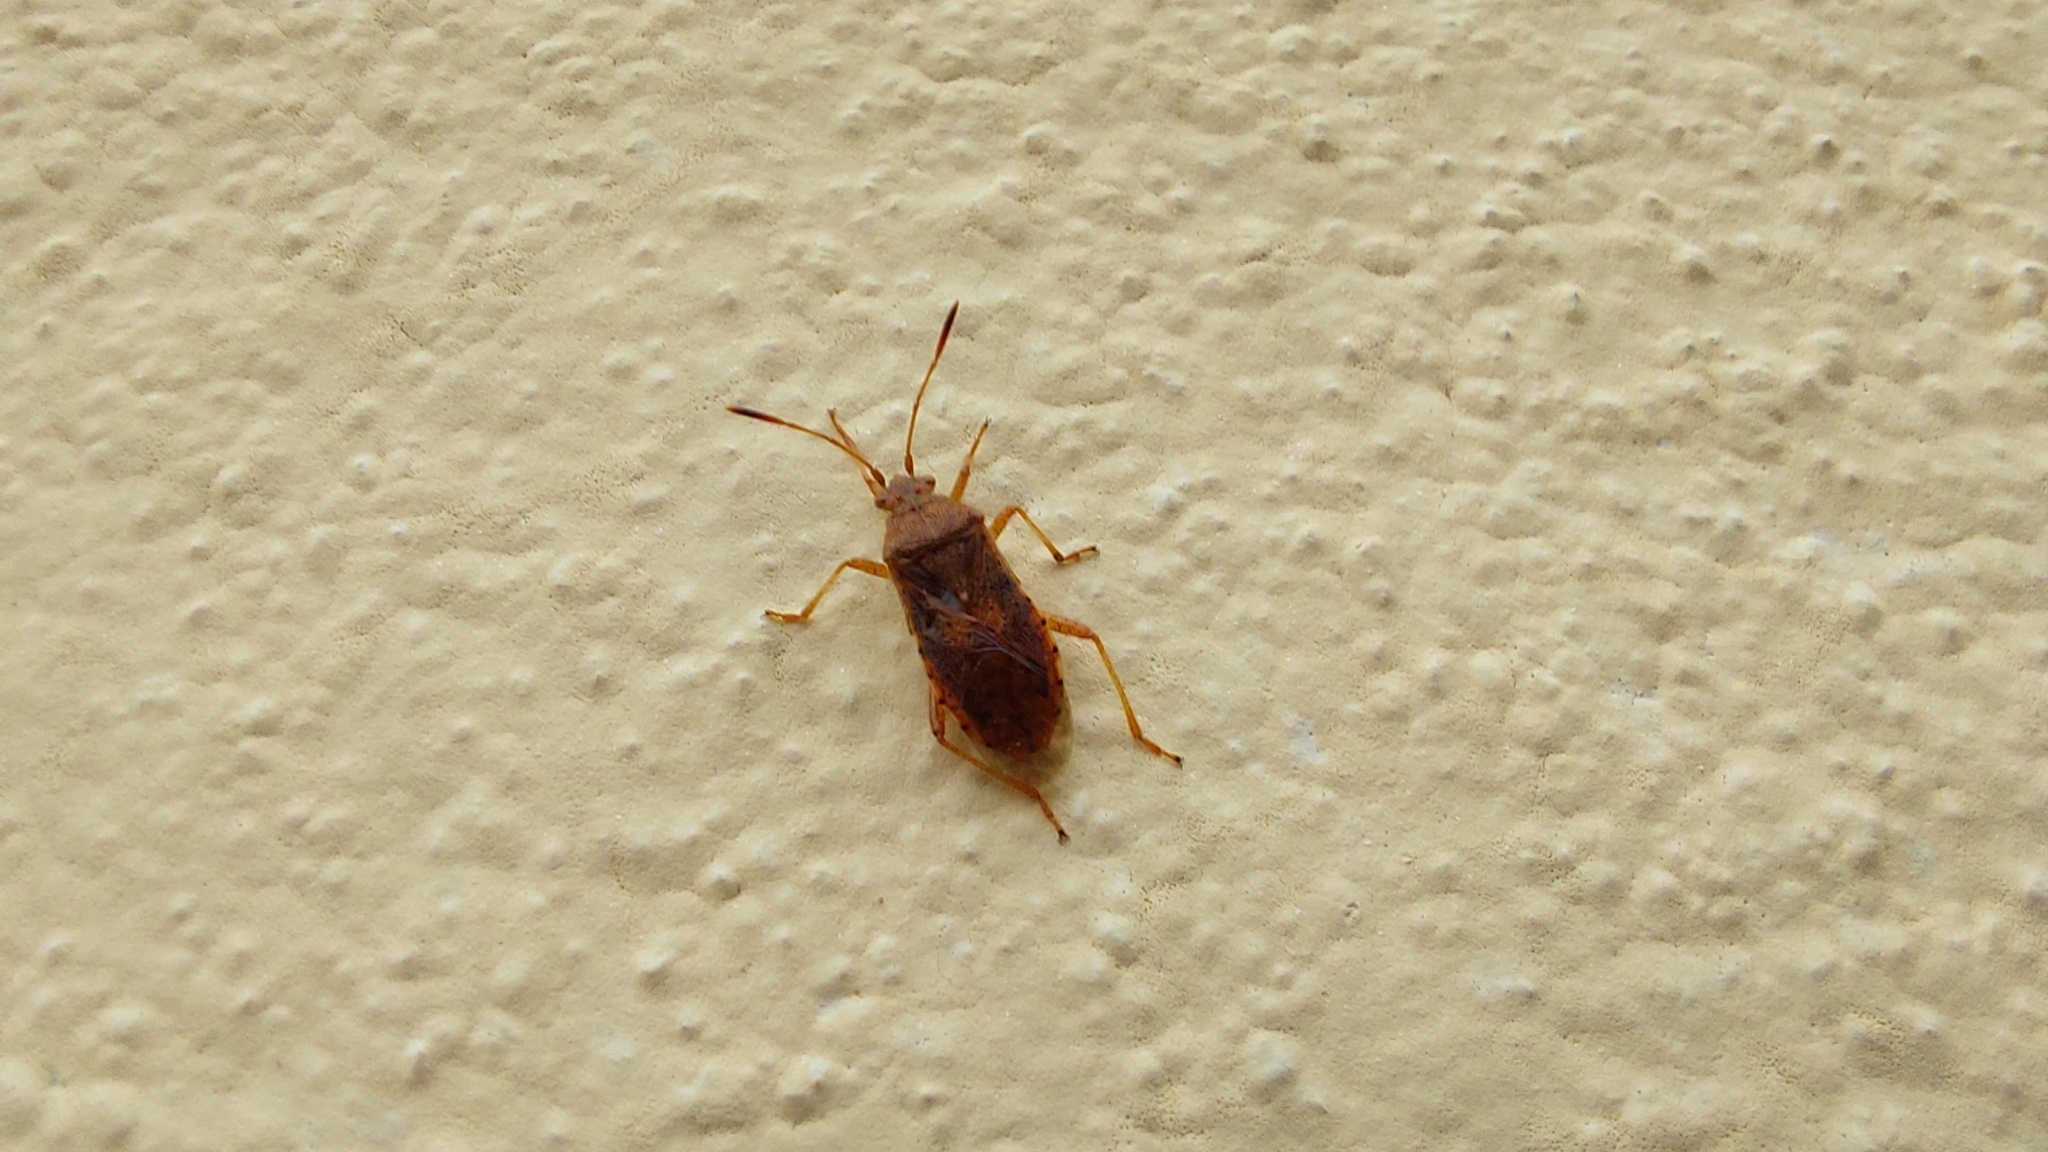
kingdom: Animalia
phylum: Arthropoda
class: Insecta
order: Hemiptera
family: Rhopalidae
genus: Rhopalus
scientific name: Rhopalus maculatus
